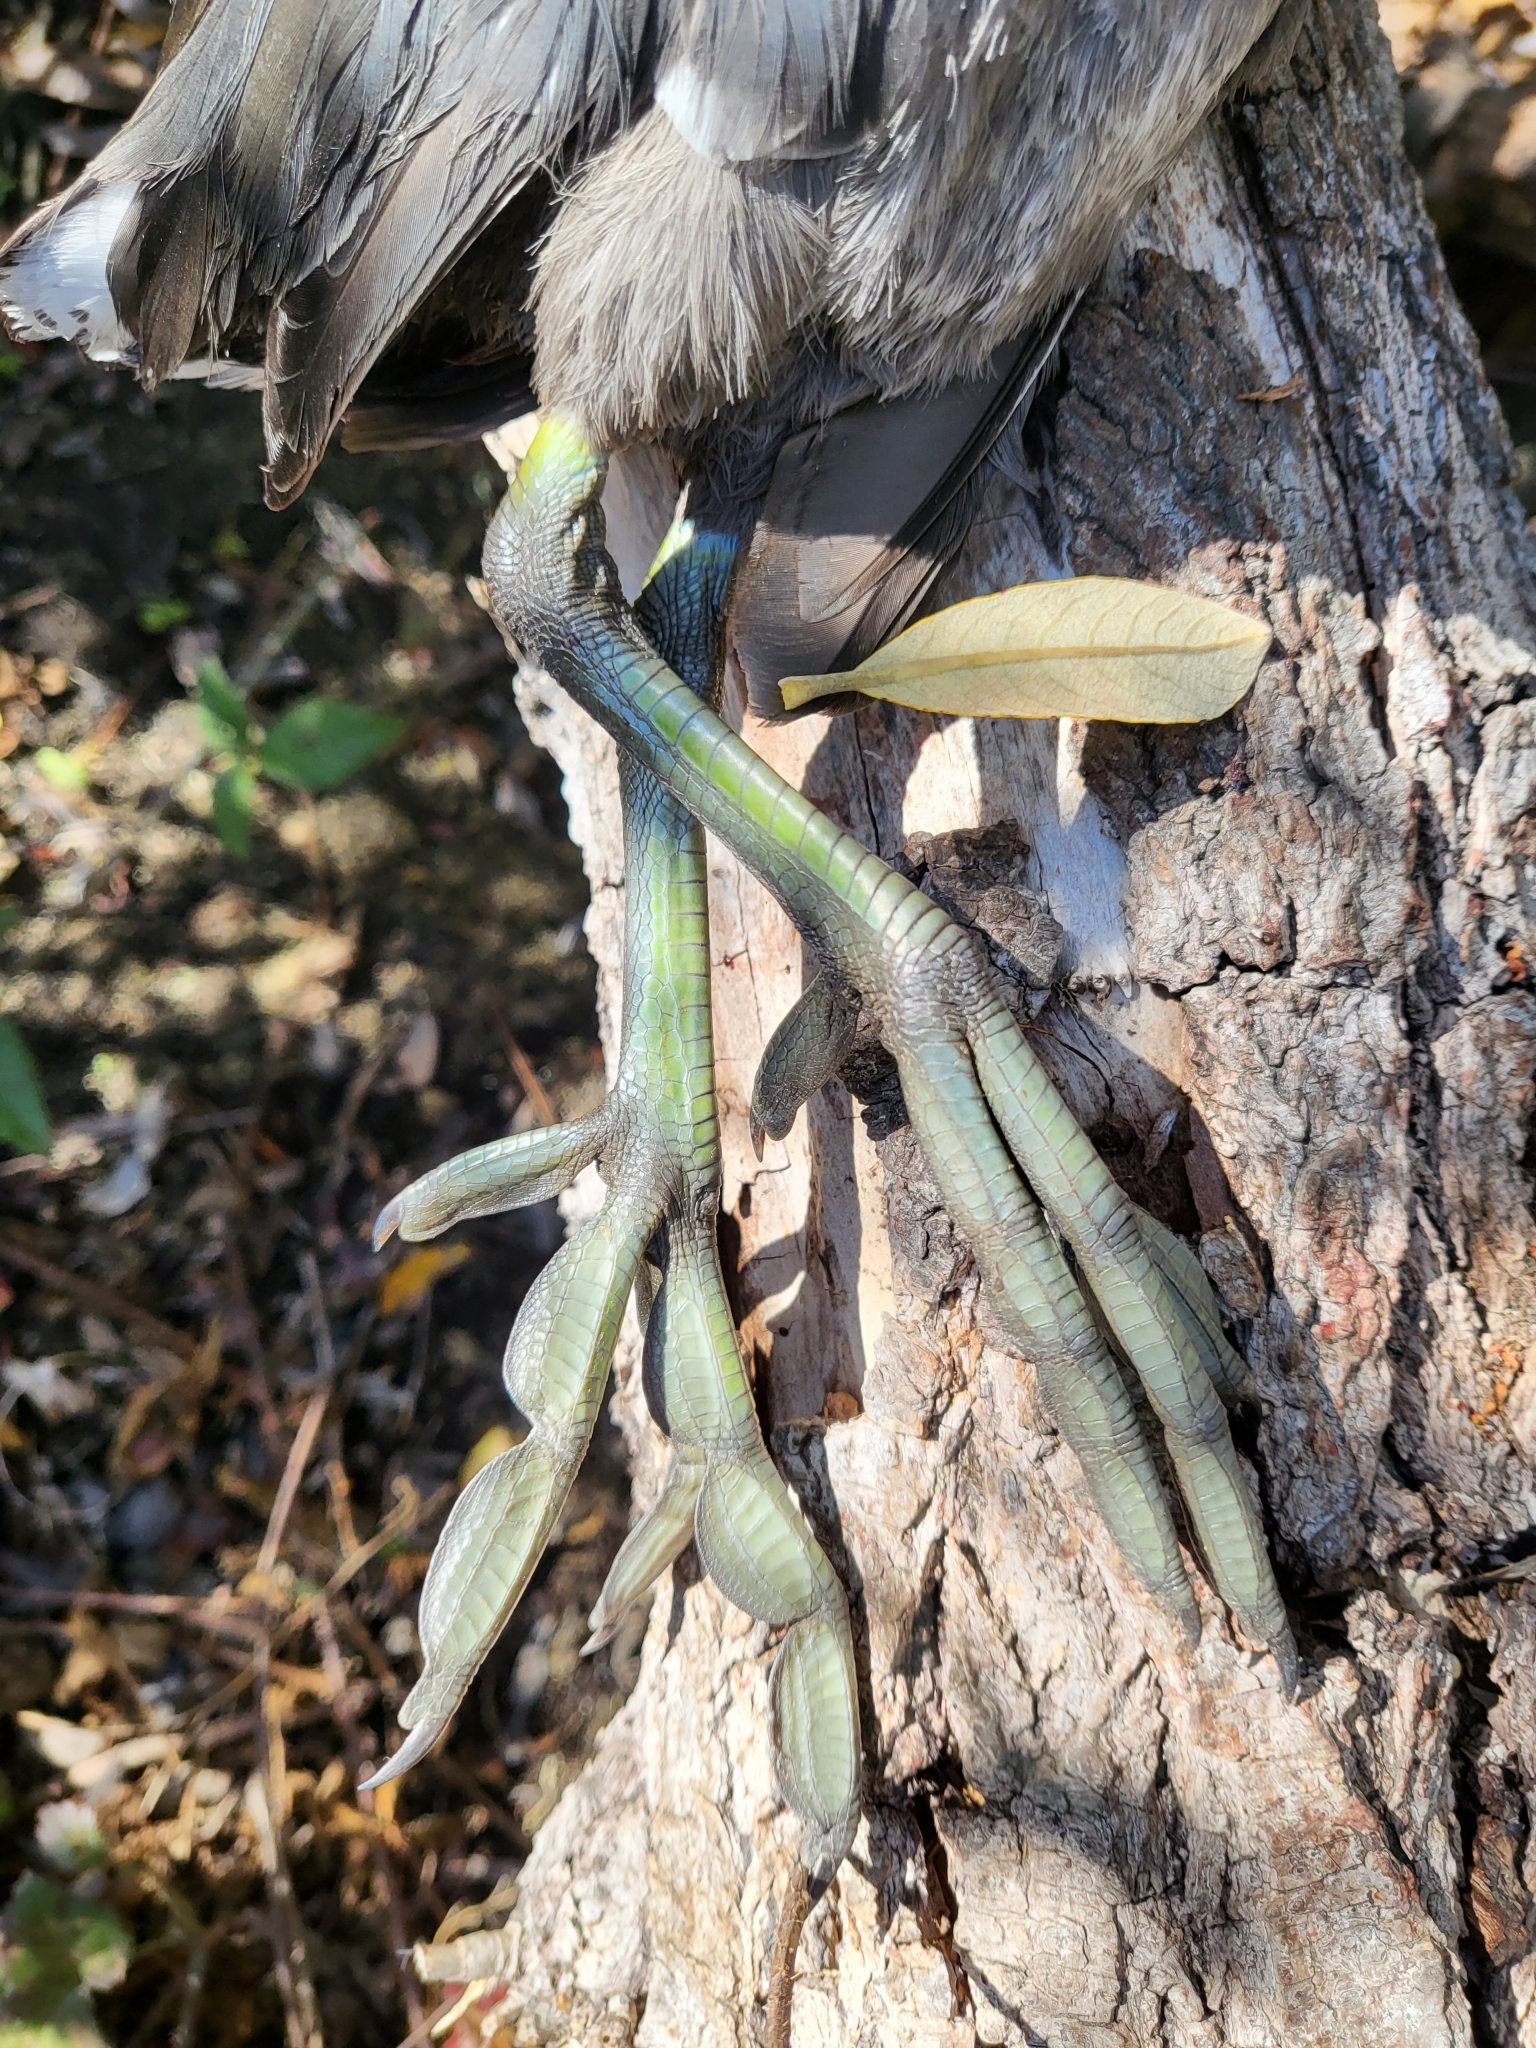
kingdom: Animalia
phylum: Chordata
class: Aves
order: Gruiformes
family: Rallidae
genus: Fulica
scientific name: Fulica americana
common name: American coot
